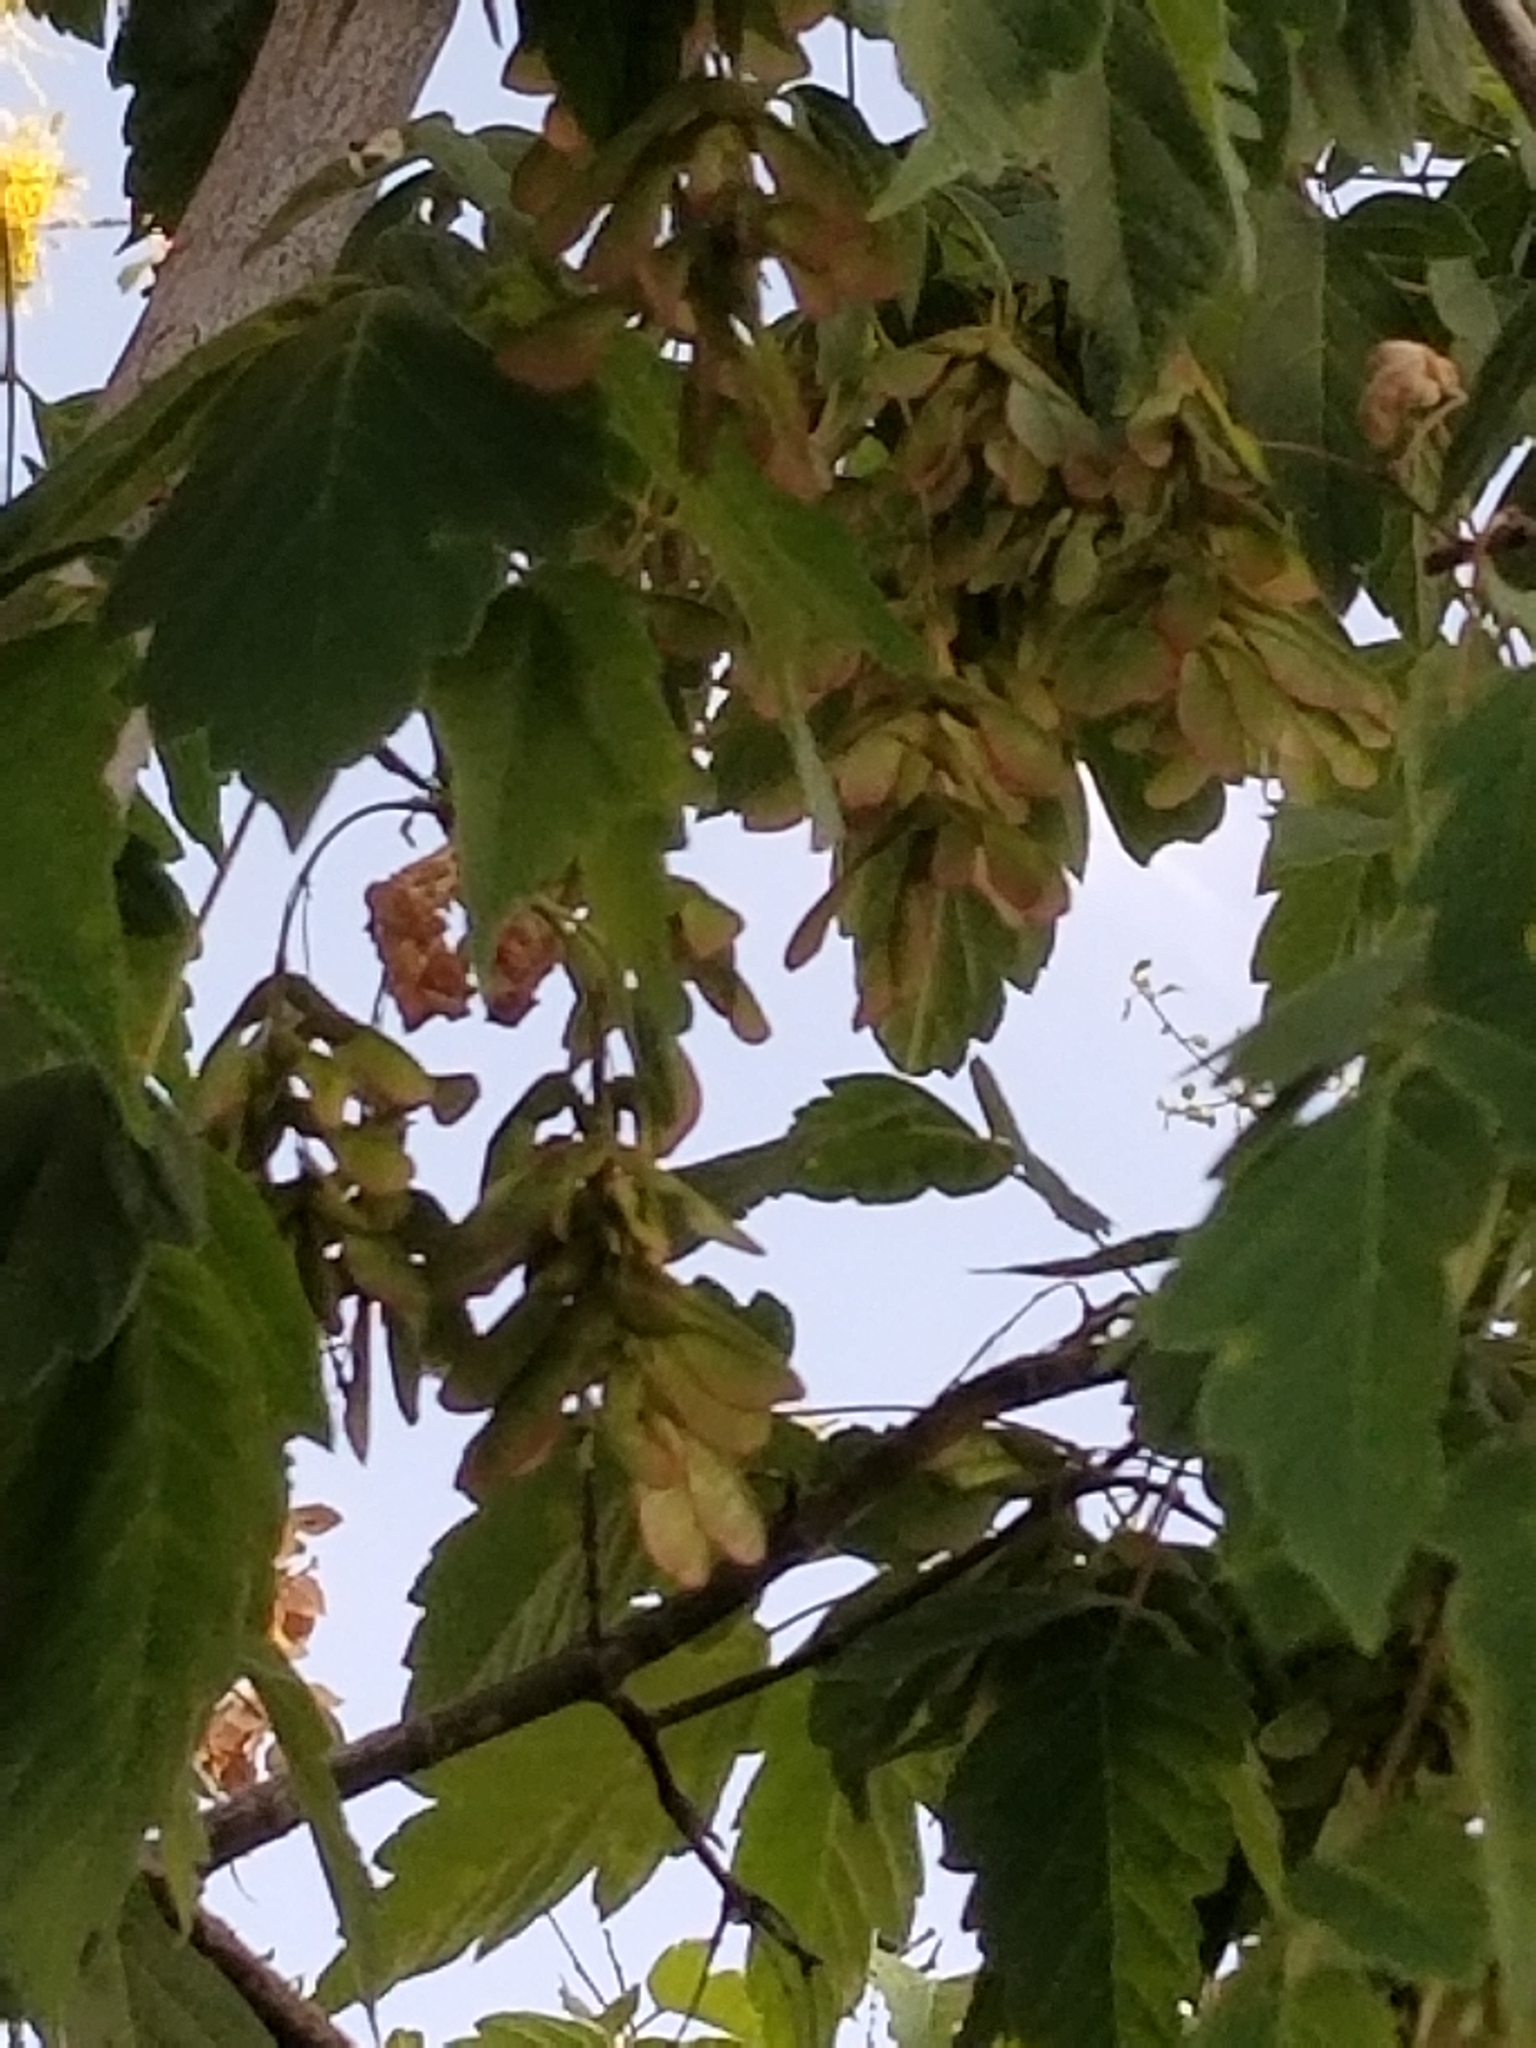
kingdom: Plantae
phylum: Tracheophyta
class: Magnoliopsida
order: Sapindales
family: Sapindaceae
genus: Acer
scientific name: Acer negundo
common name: Ashleaf maple
